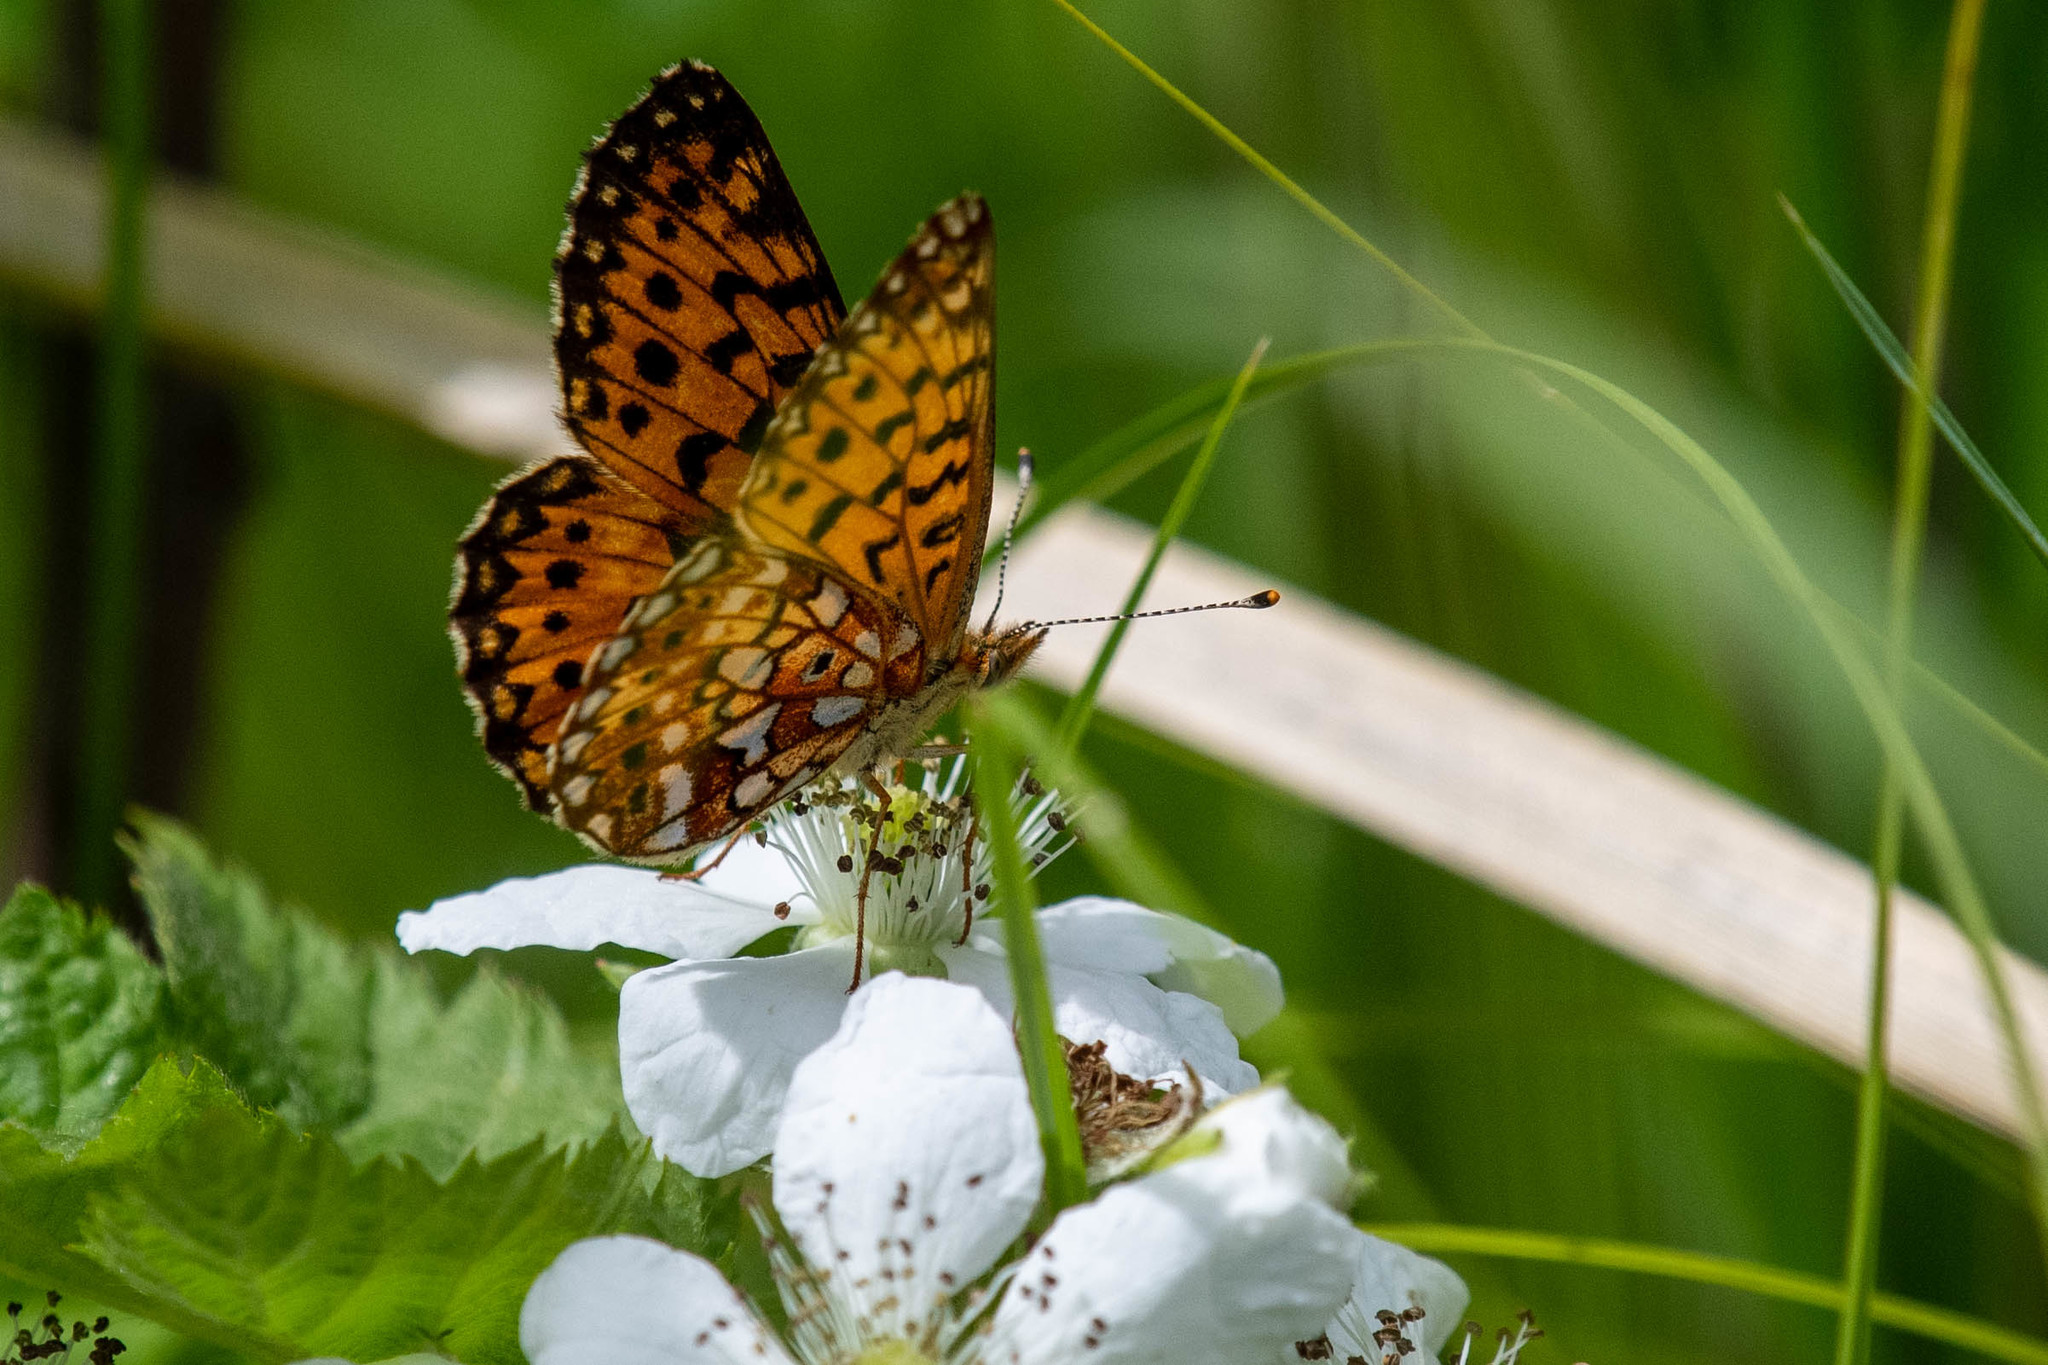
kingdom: Animalia
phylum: Arthropoda
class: Insecta
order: Lepidoptera
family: Nymphalidae
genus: Boloria
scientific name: Boloria
